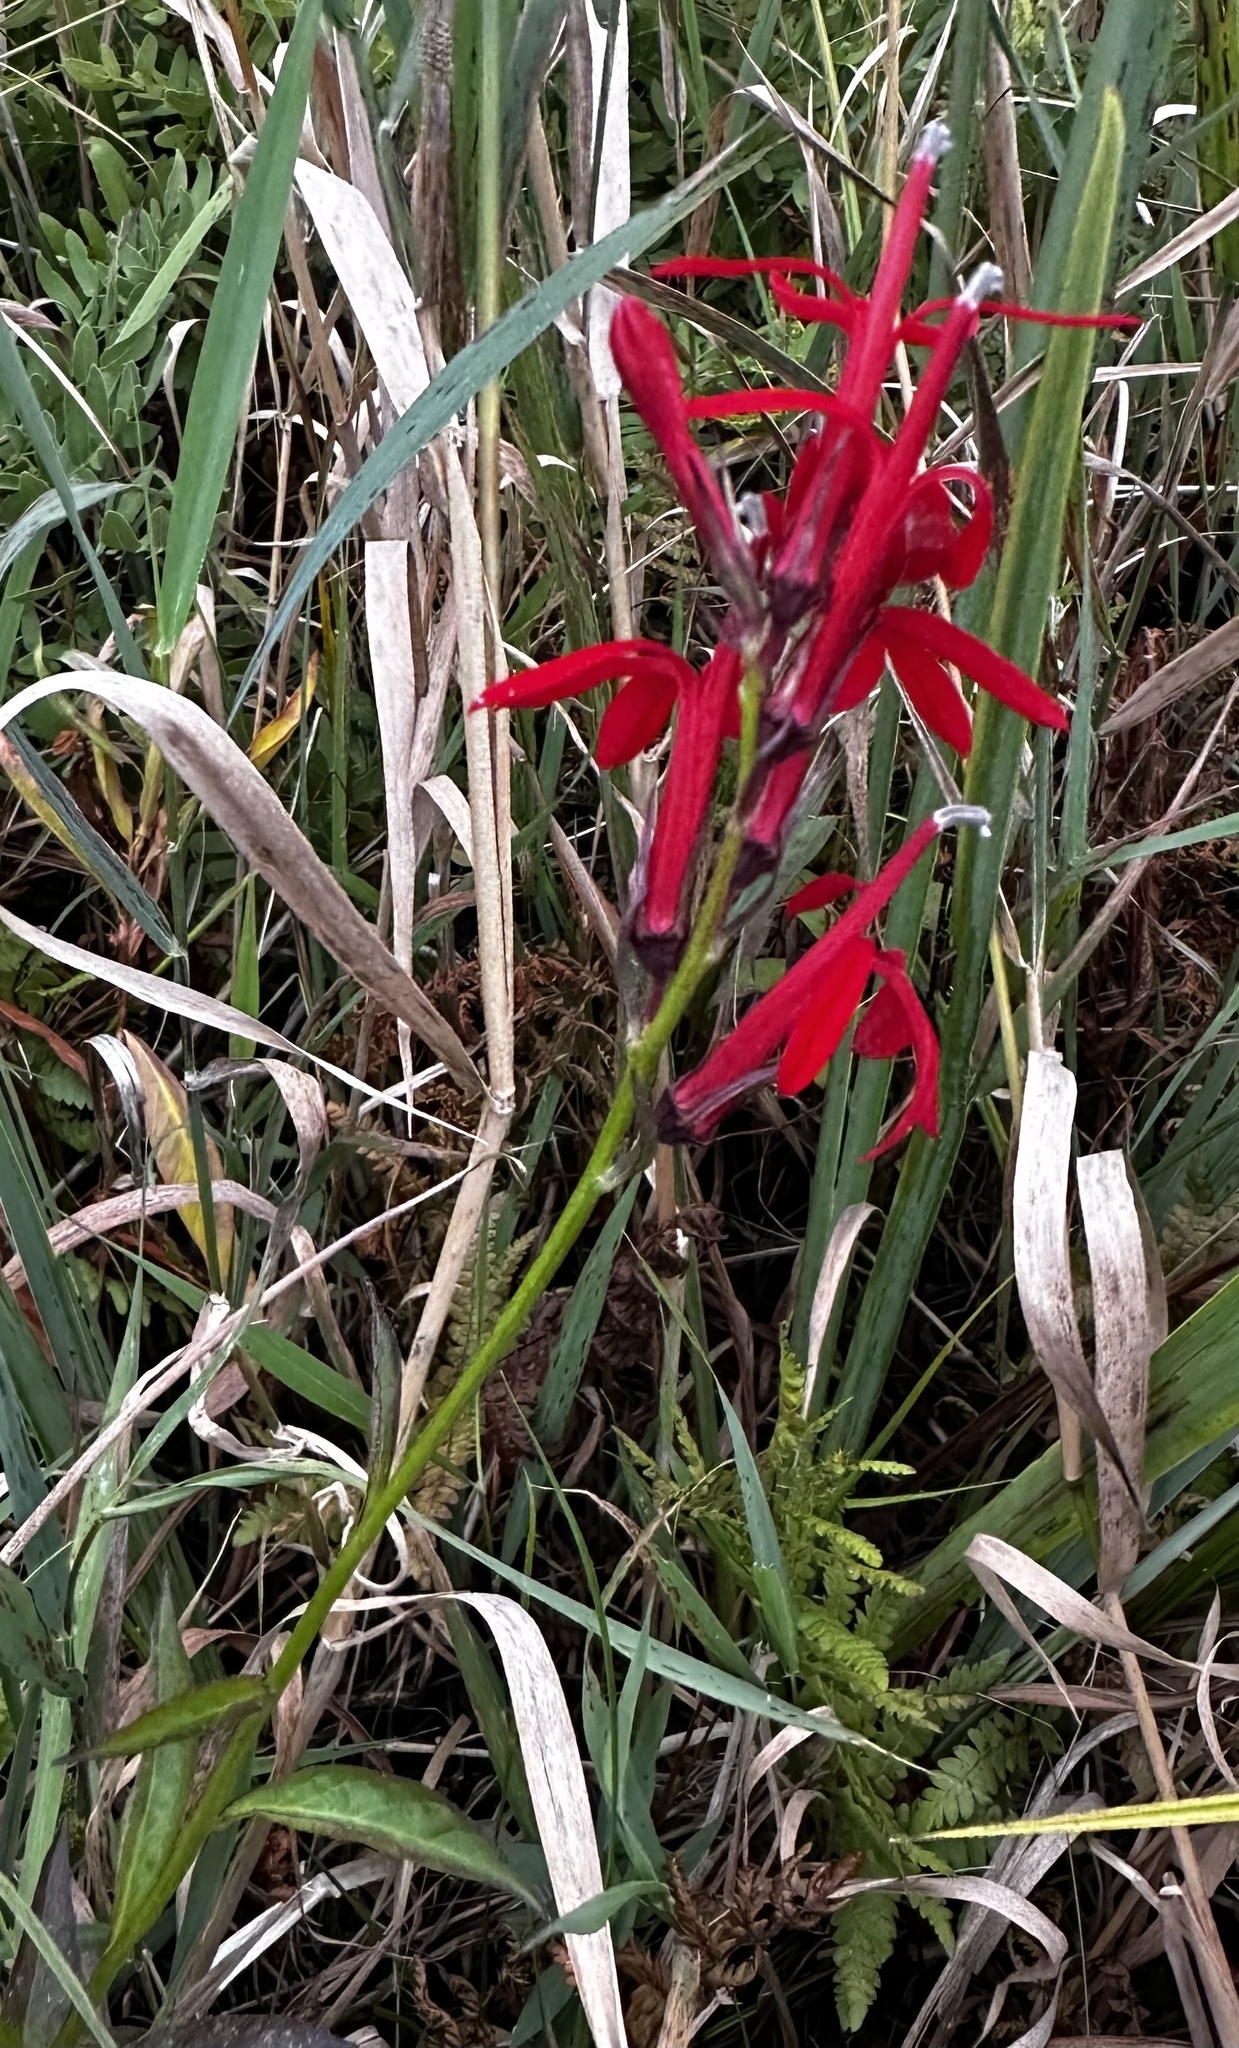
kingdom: Plantae
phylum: Tracheophyta
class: Magnoliopsida
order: Asterales
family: Campanulaceae
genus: Lobelia
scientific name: Lobelia cardinalis
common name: Cardinal flower
